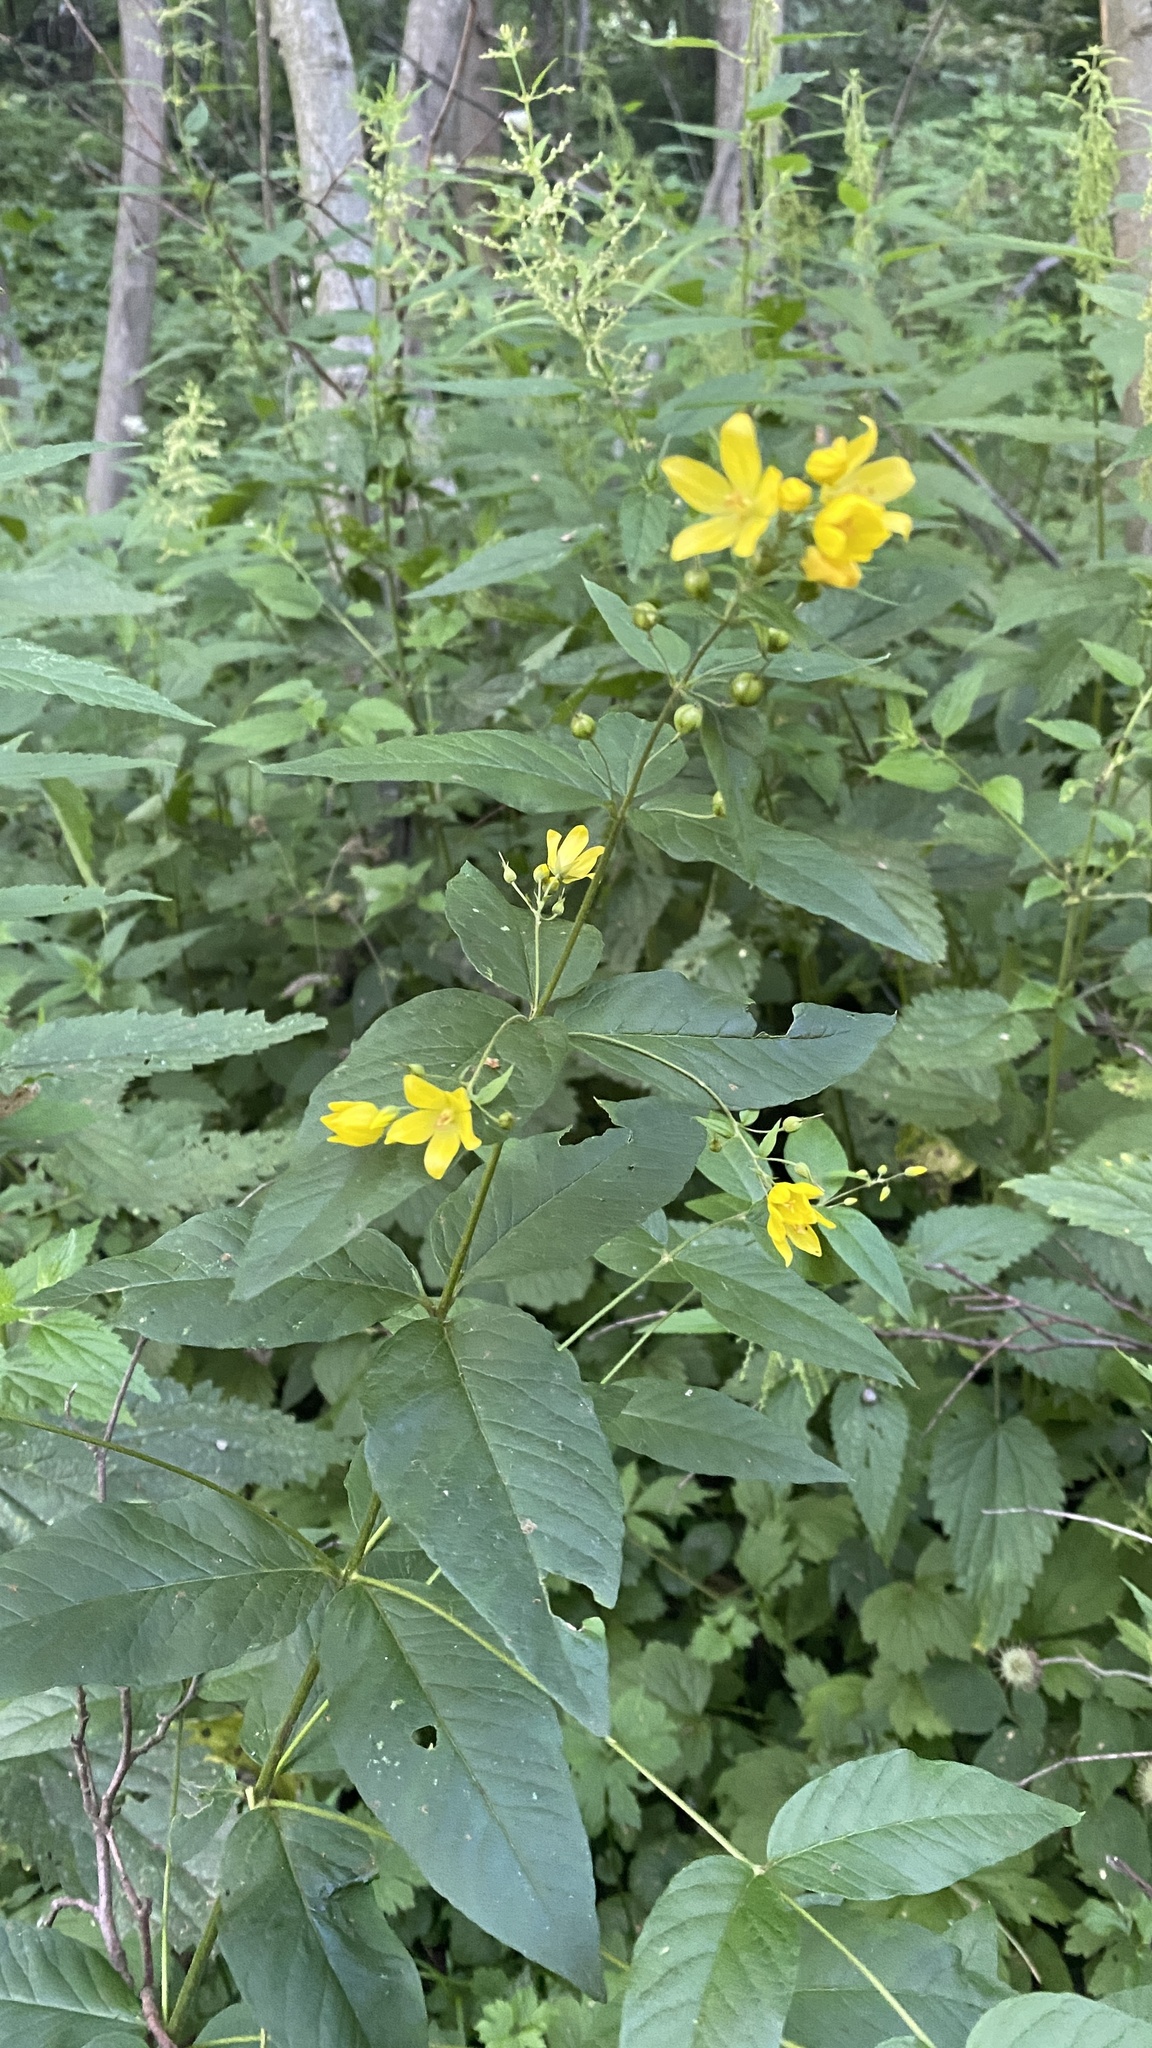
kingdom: Plantae
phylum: Tracheophyta
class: Magnoliopsida
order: Ericales
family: Primulaceae
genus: Lysimachia
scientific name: Lysimachia vulgaris
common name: Yellow loosestrife
